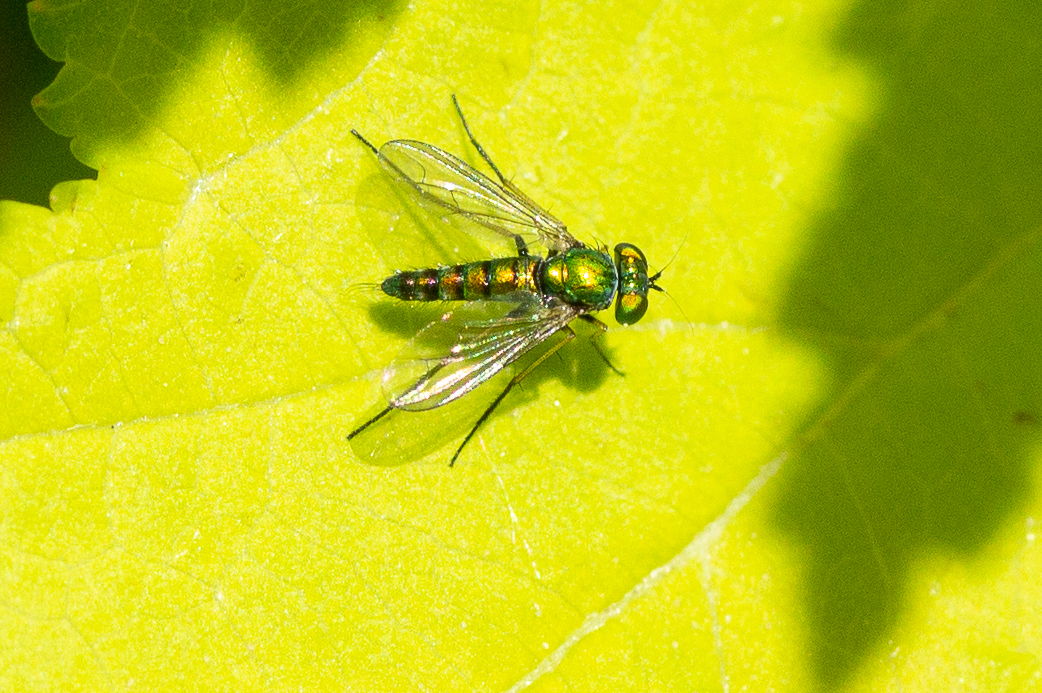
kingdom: Animalia
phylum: Arthropoda
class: Insecta
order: Diptera
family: Dolichopodidae
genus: Condylostylus
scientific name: Condylostylus caudatus
